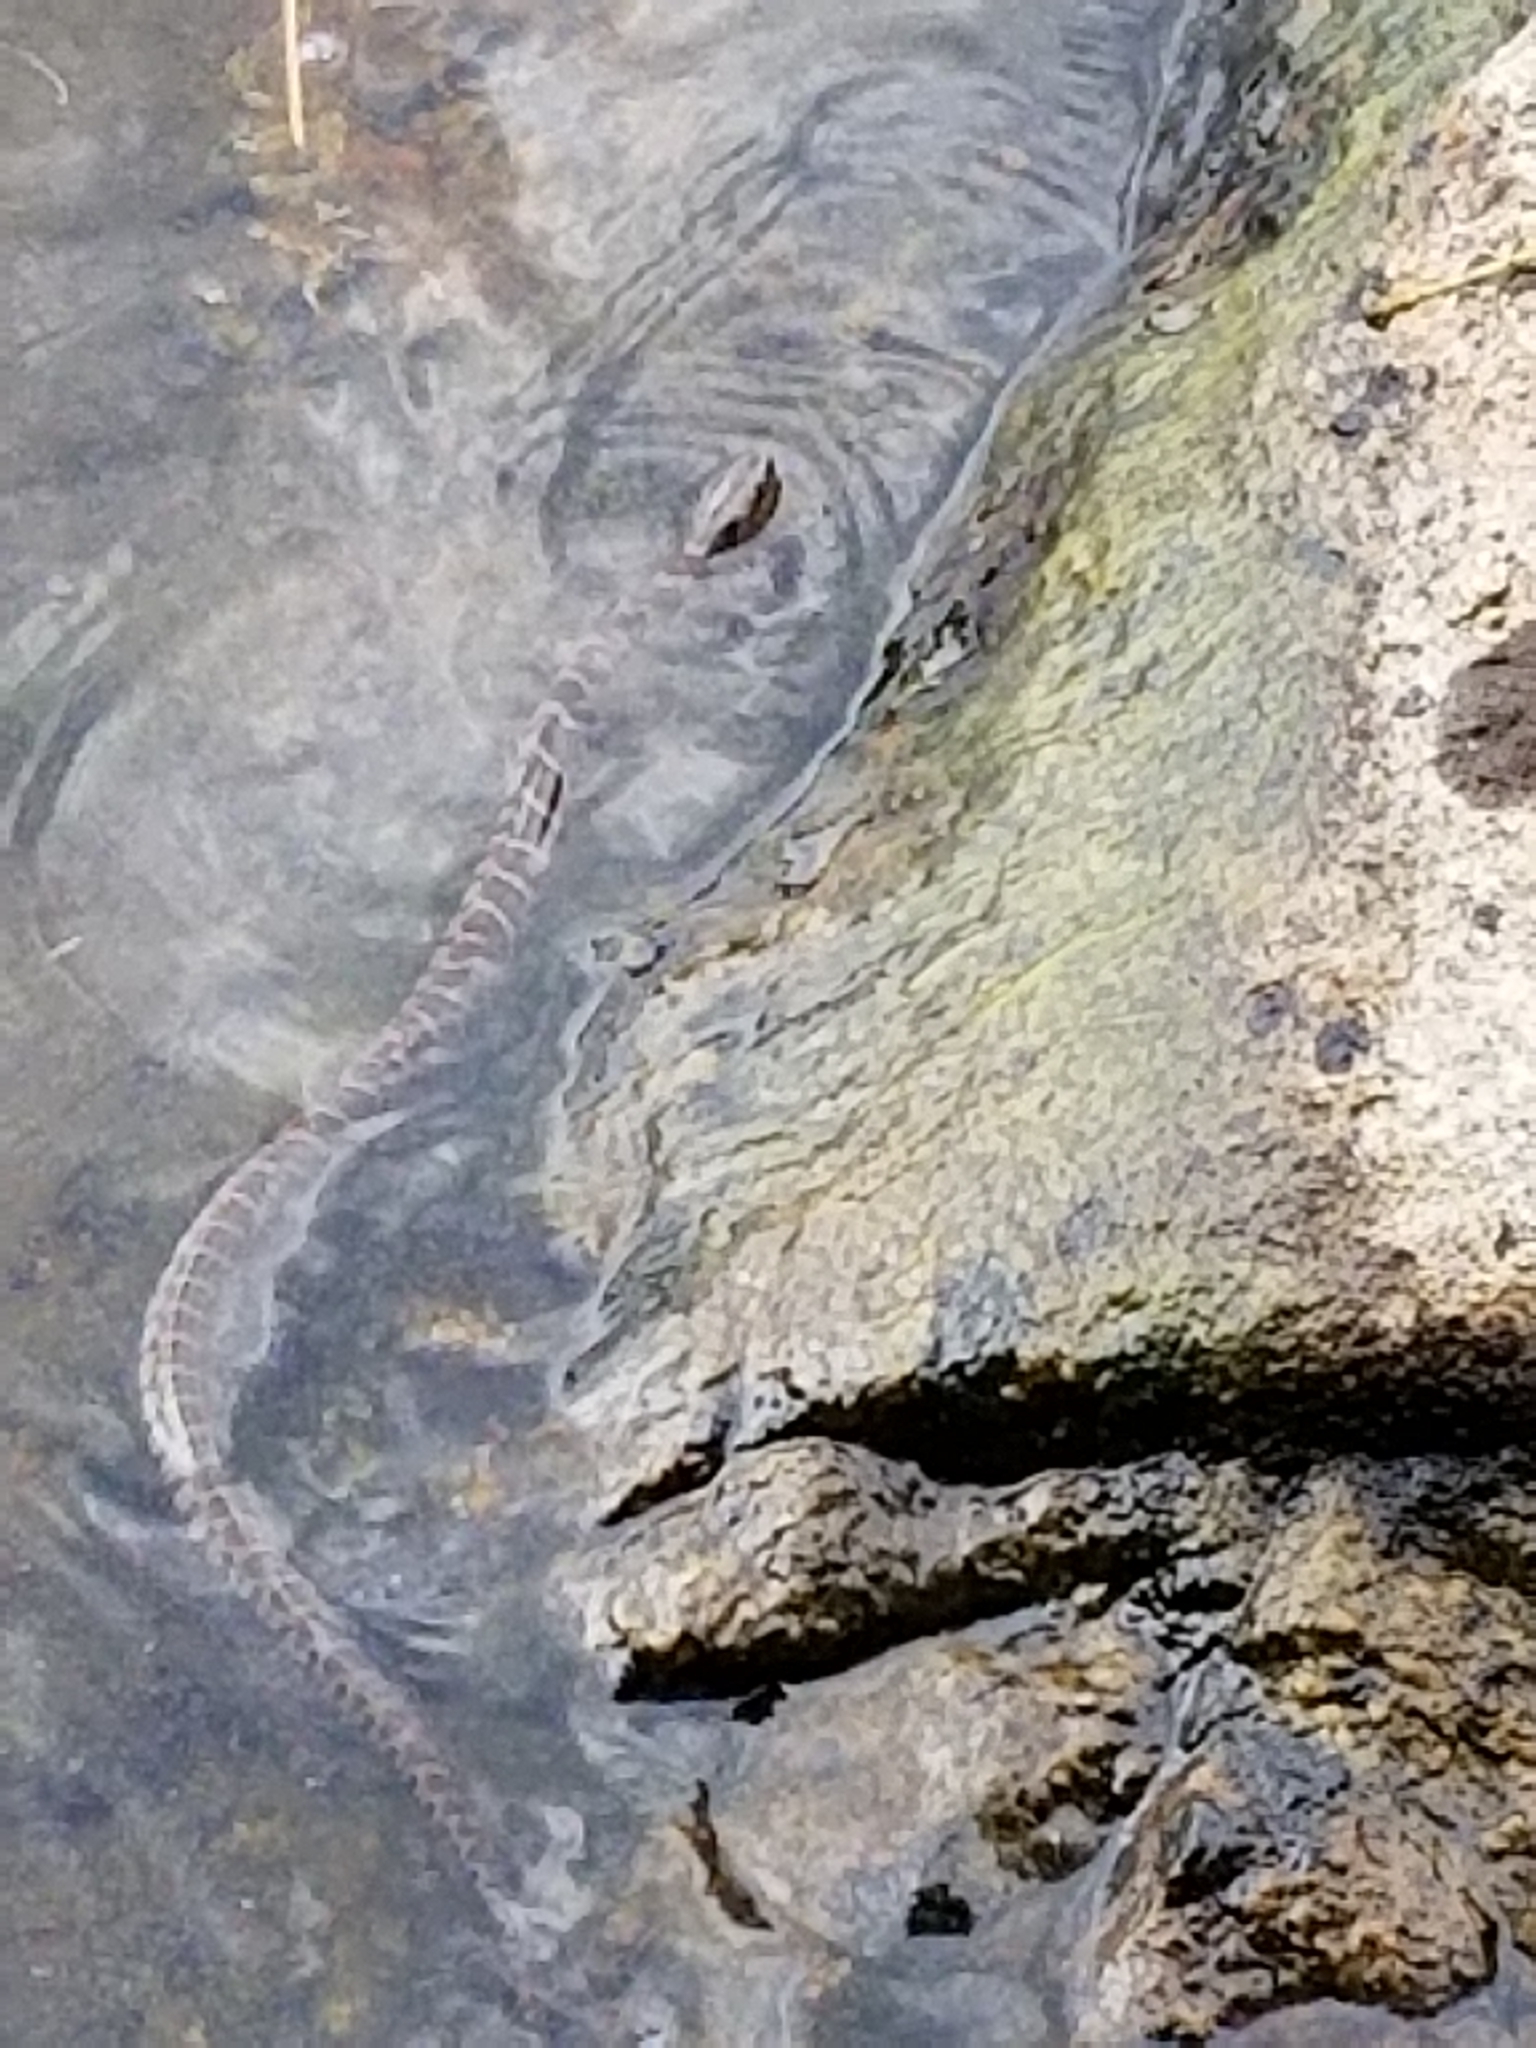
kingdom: Animalia
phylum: Chordata
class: Squamata
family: Colubridae
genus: Nerodia
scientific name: Nerodia sipedon
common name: Northern water snake
